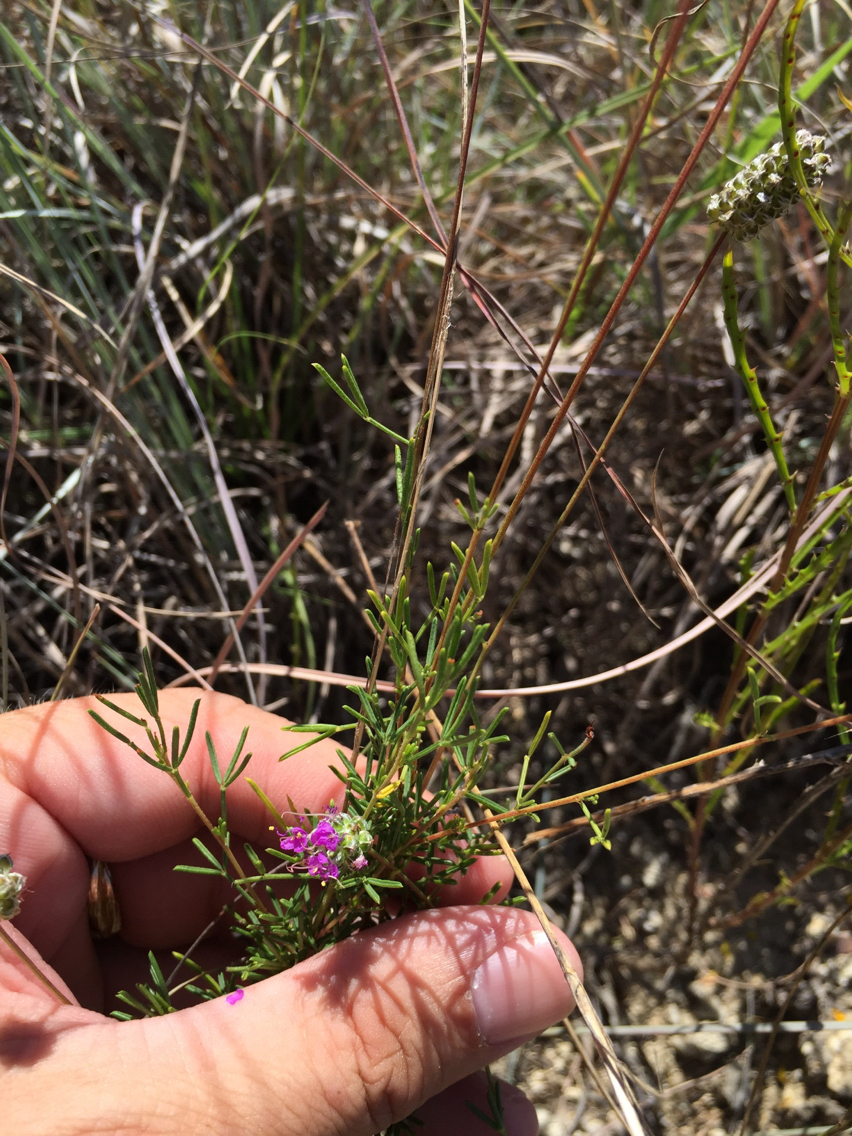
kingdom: Plantae
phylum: Tracheophyta
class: Magnoliopsida
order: Fabales
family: Fabaceae
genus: Dalea
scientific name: Dalea tenuis
